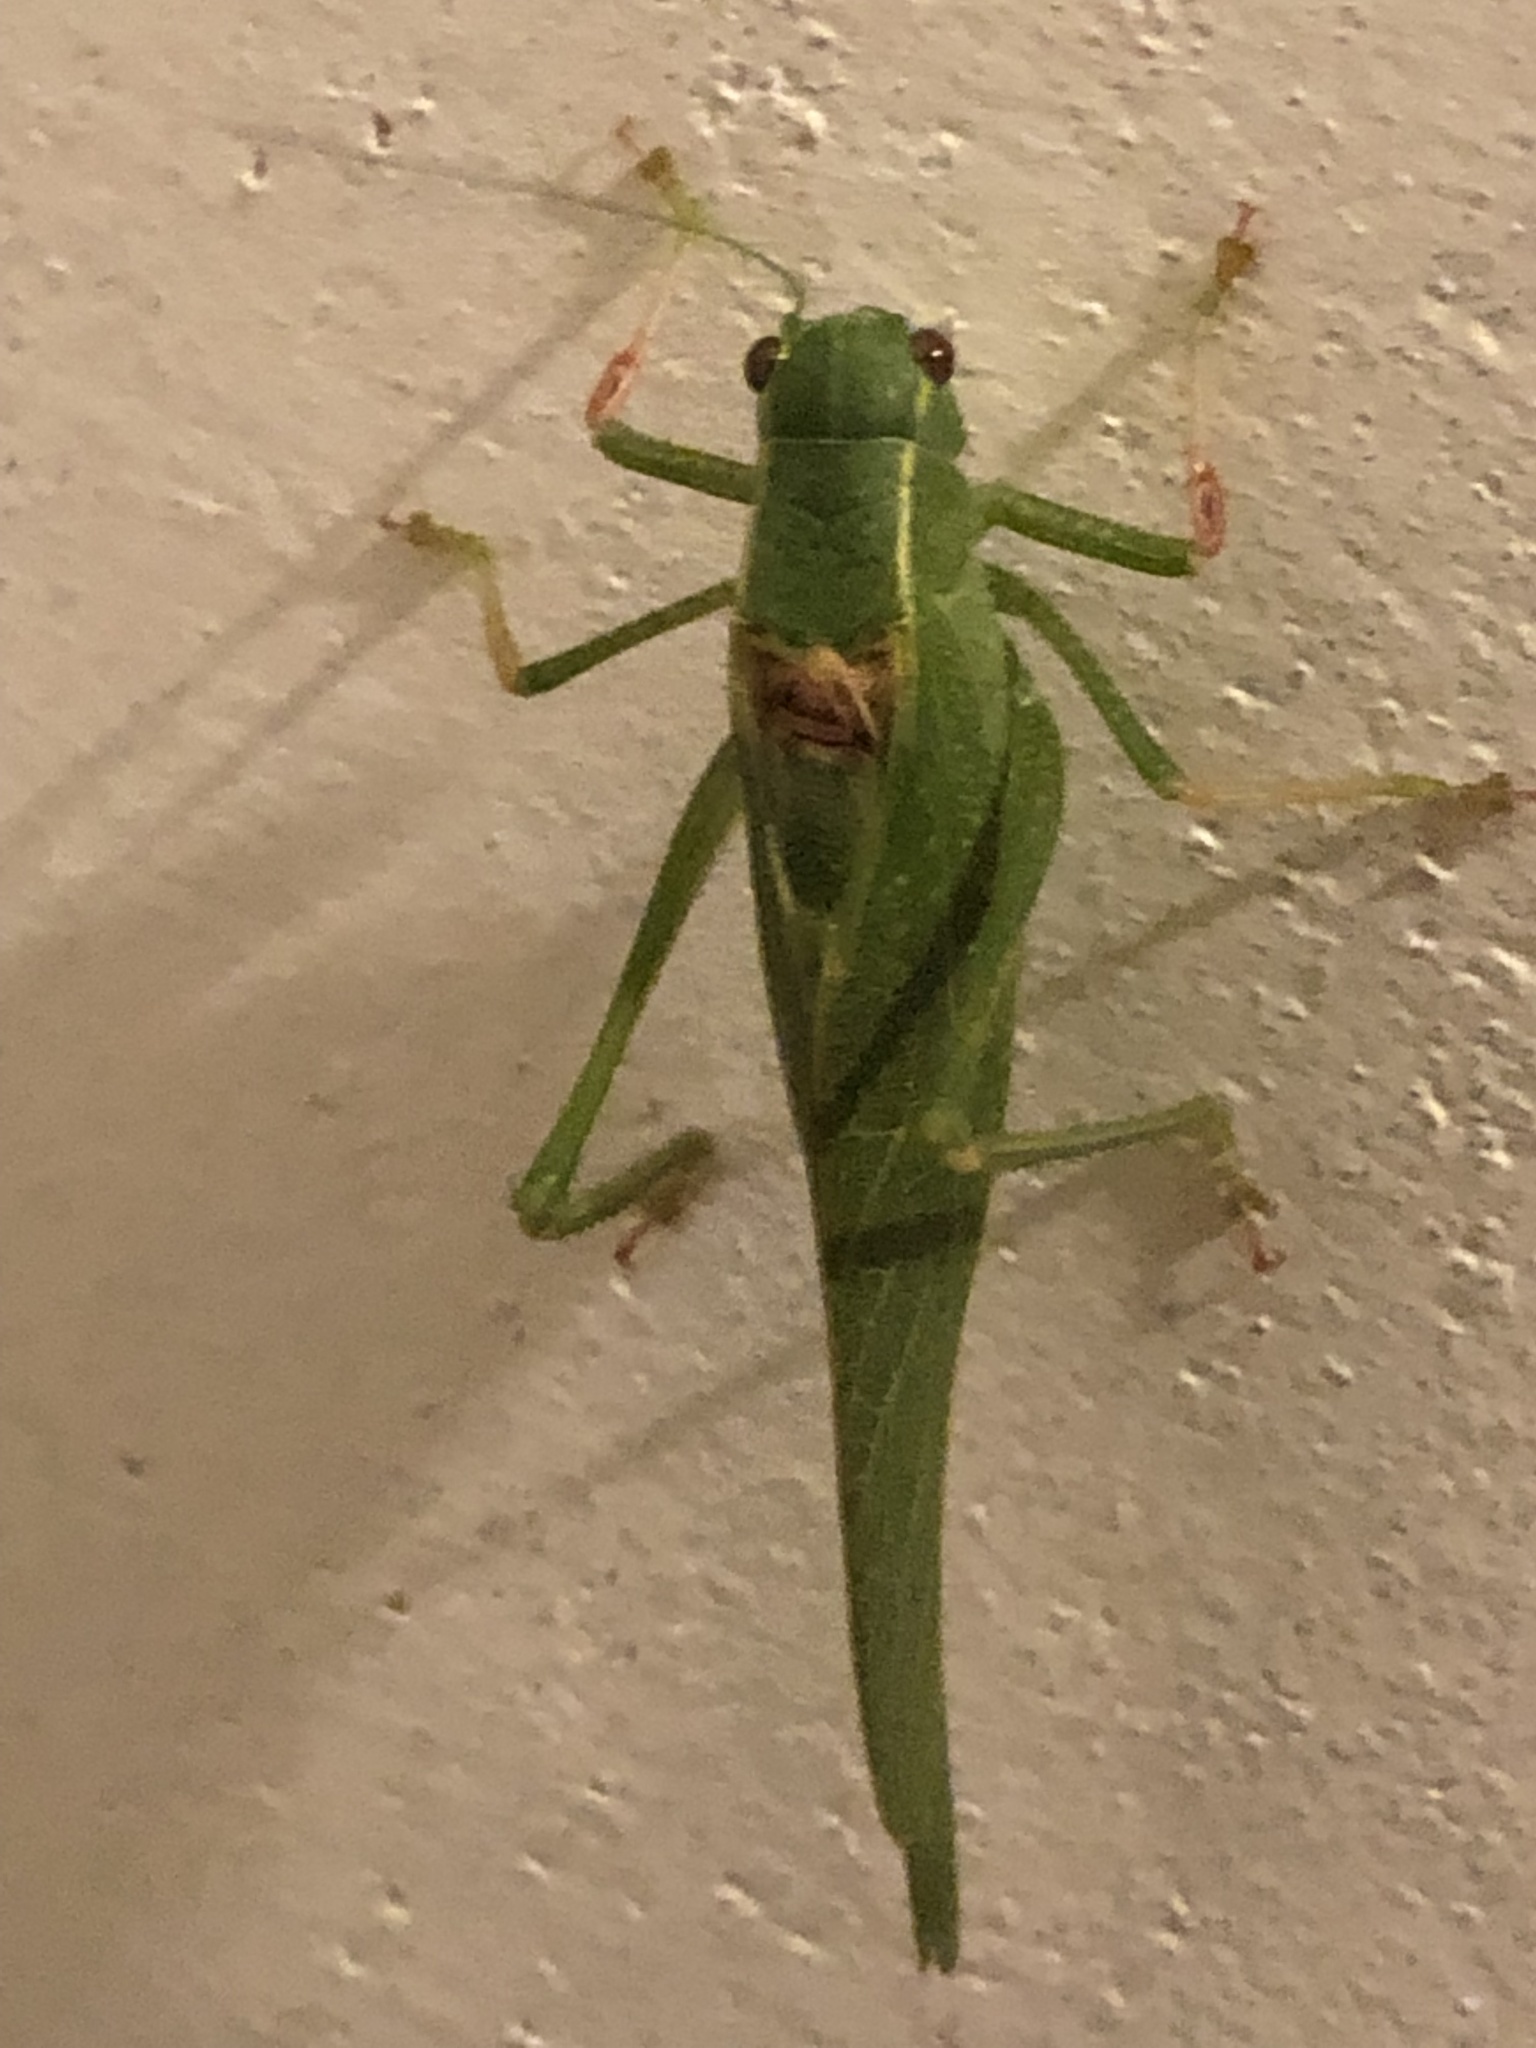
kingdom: Animalia
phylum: Arthropoda
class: Insecta
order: Orthoptera
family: Tettigoniidae
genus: Microcentrum
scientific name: Microcentrum californicum
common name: California angle-wing
